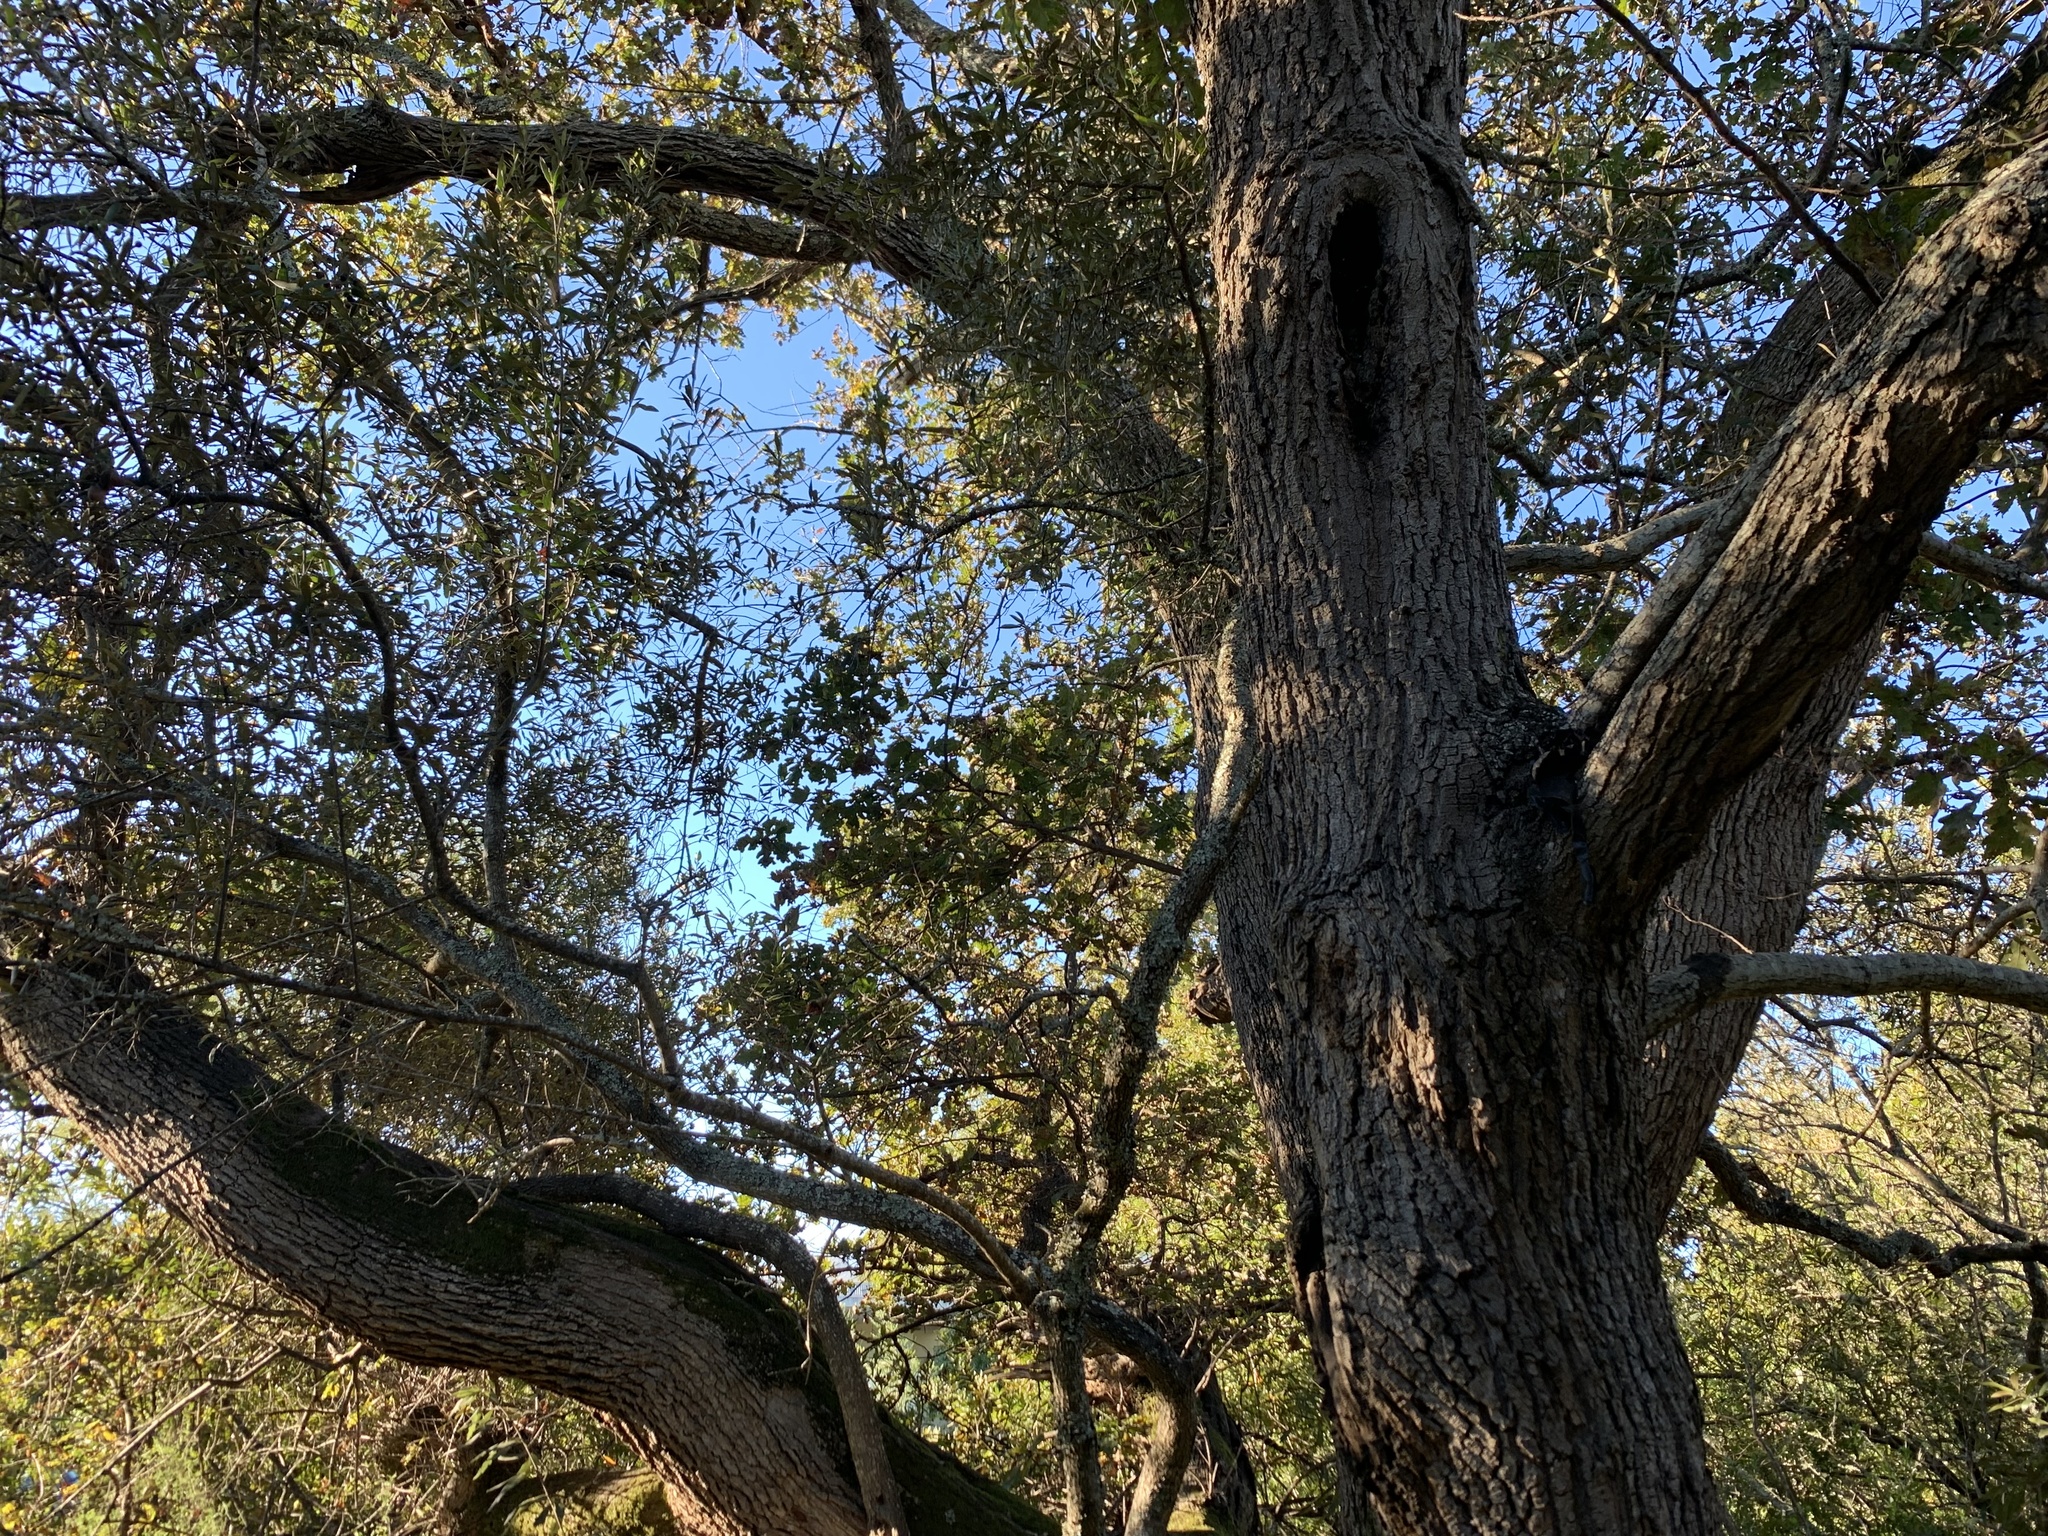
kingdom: Plantae
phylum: Tracheophyta
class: Magnoliopsida
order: Fagales
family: Fagaceae
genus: Quercus
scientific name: Quercus robur
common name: Pedunculate oak
